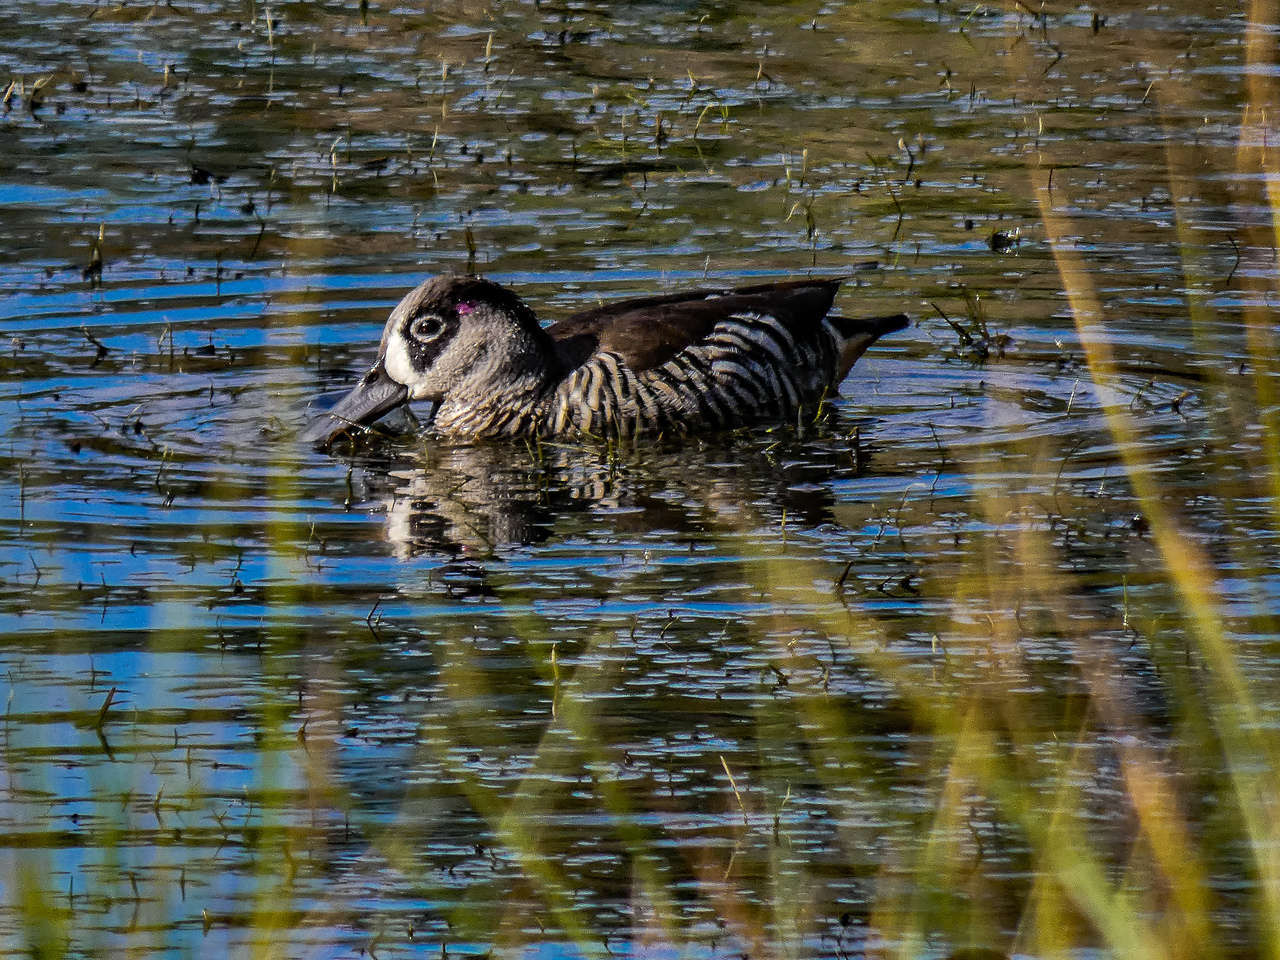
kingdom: Animalia
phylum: Chordata
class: Aves
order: Anseriformes
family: Anatidae
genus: Malacorhynchus
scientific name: Malacorhynchus membranaceus
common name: Pink-eared duck
